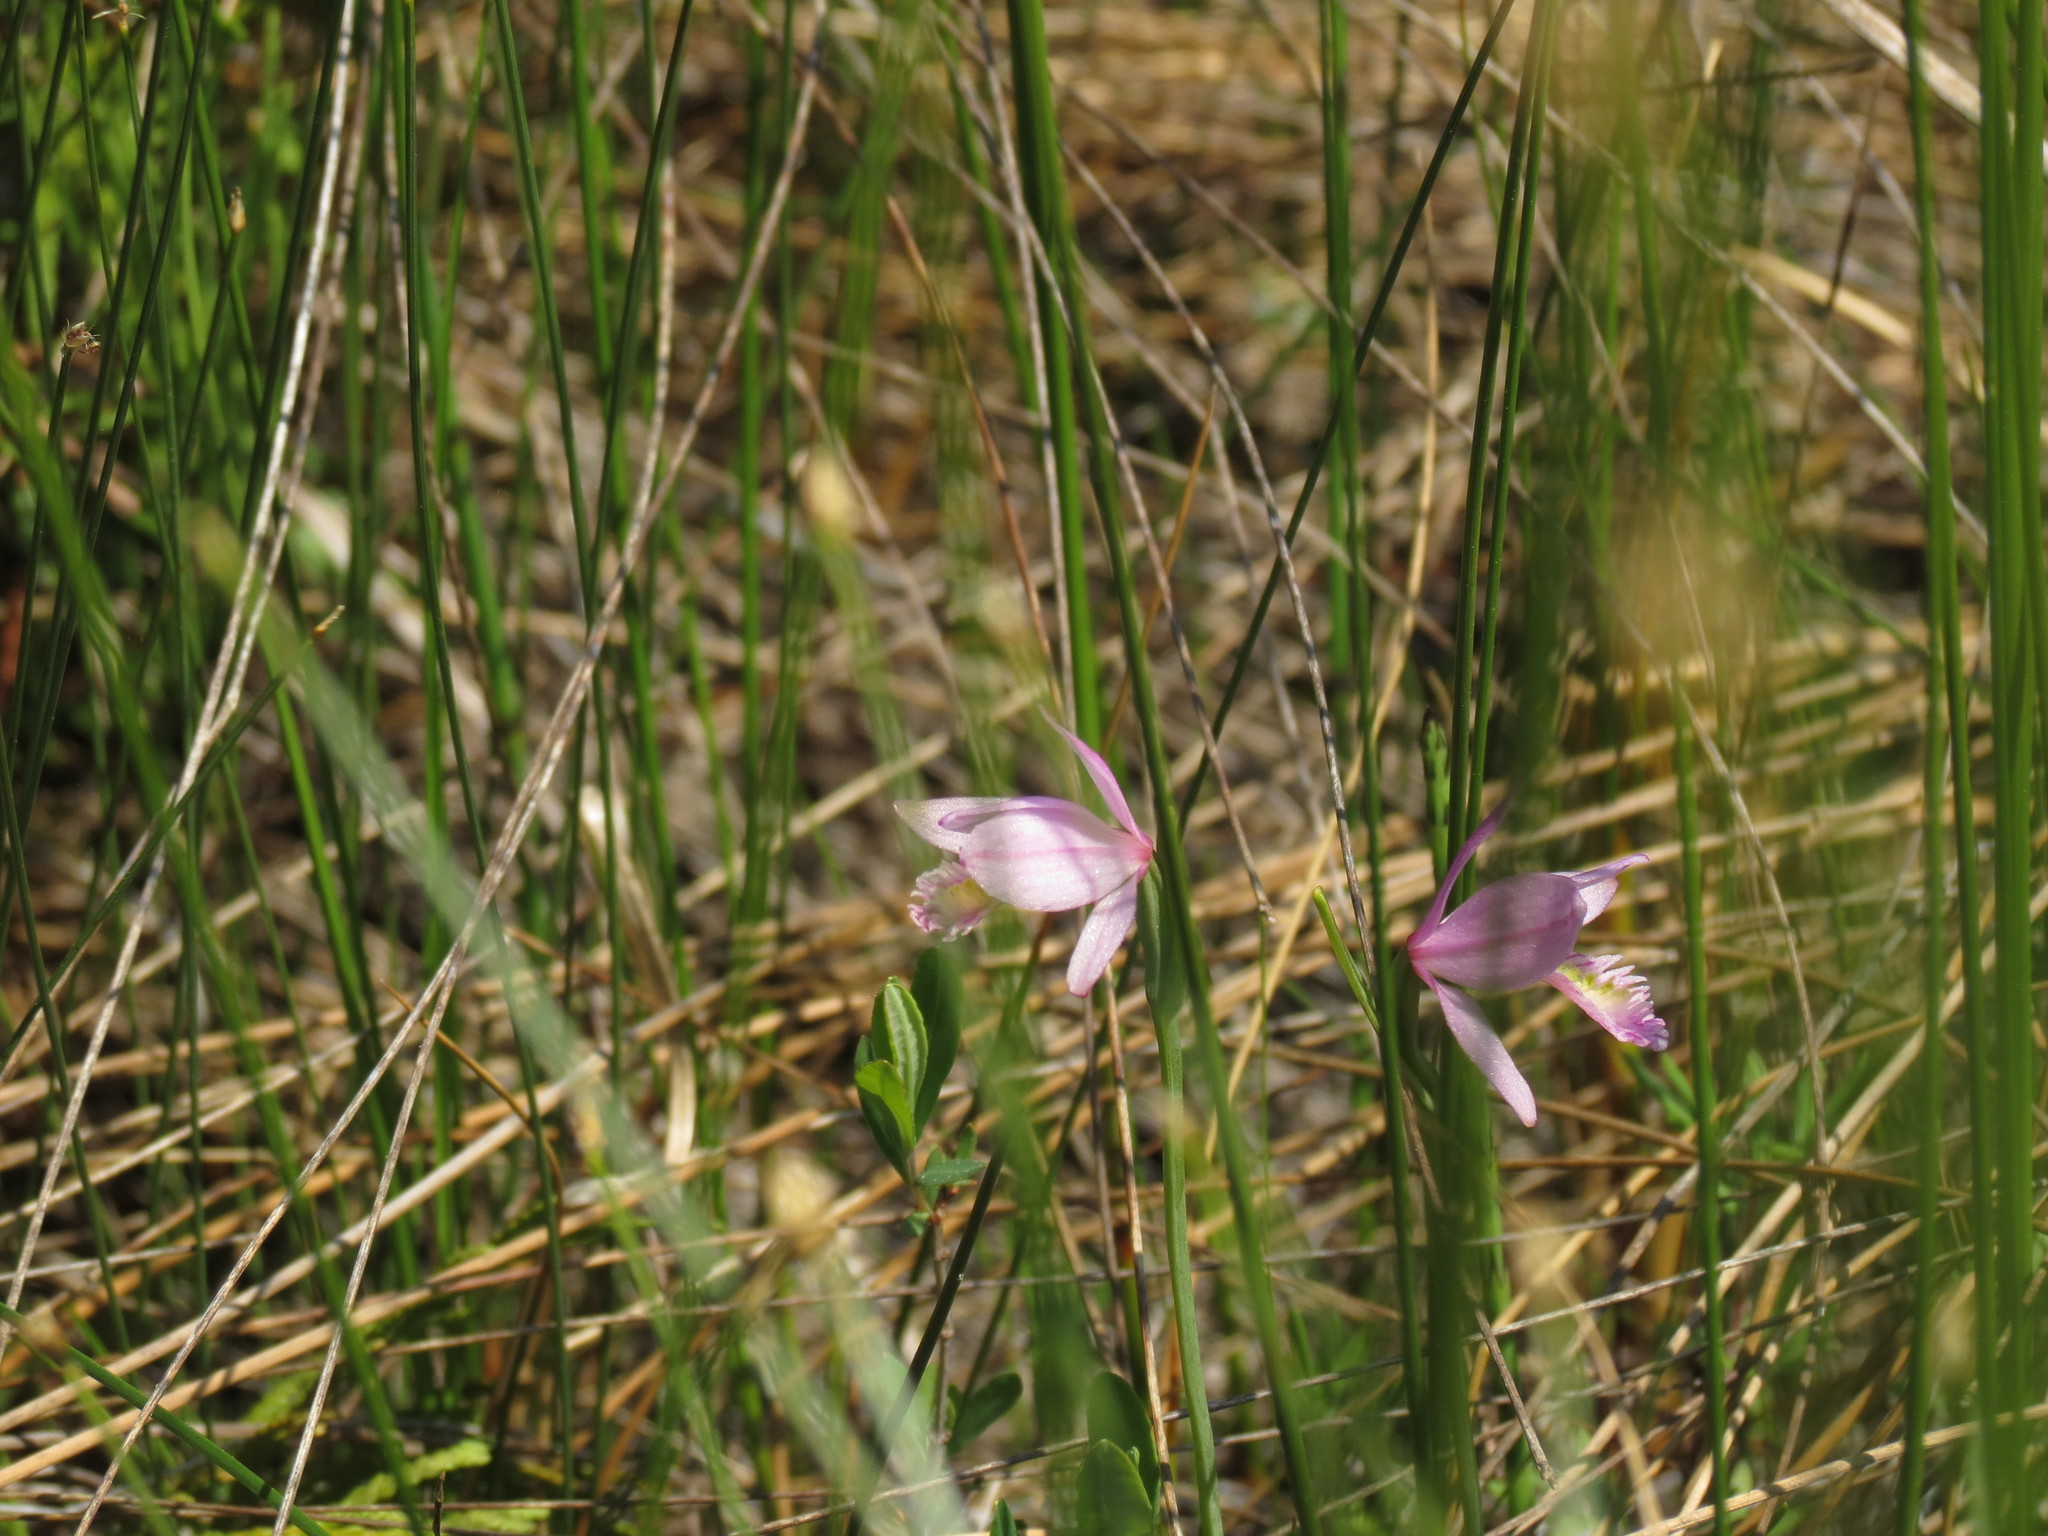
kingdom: Plantae
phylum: Tracheophyta
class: Liliopsida
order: Asparagales
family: Orchidaceae
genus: Pogonia
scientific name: Pogonia ophioglossoides
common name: Rose pogonia
